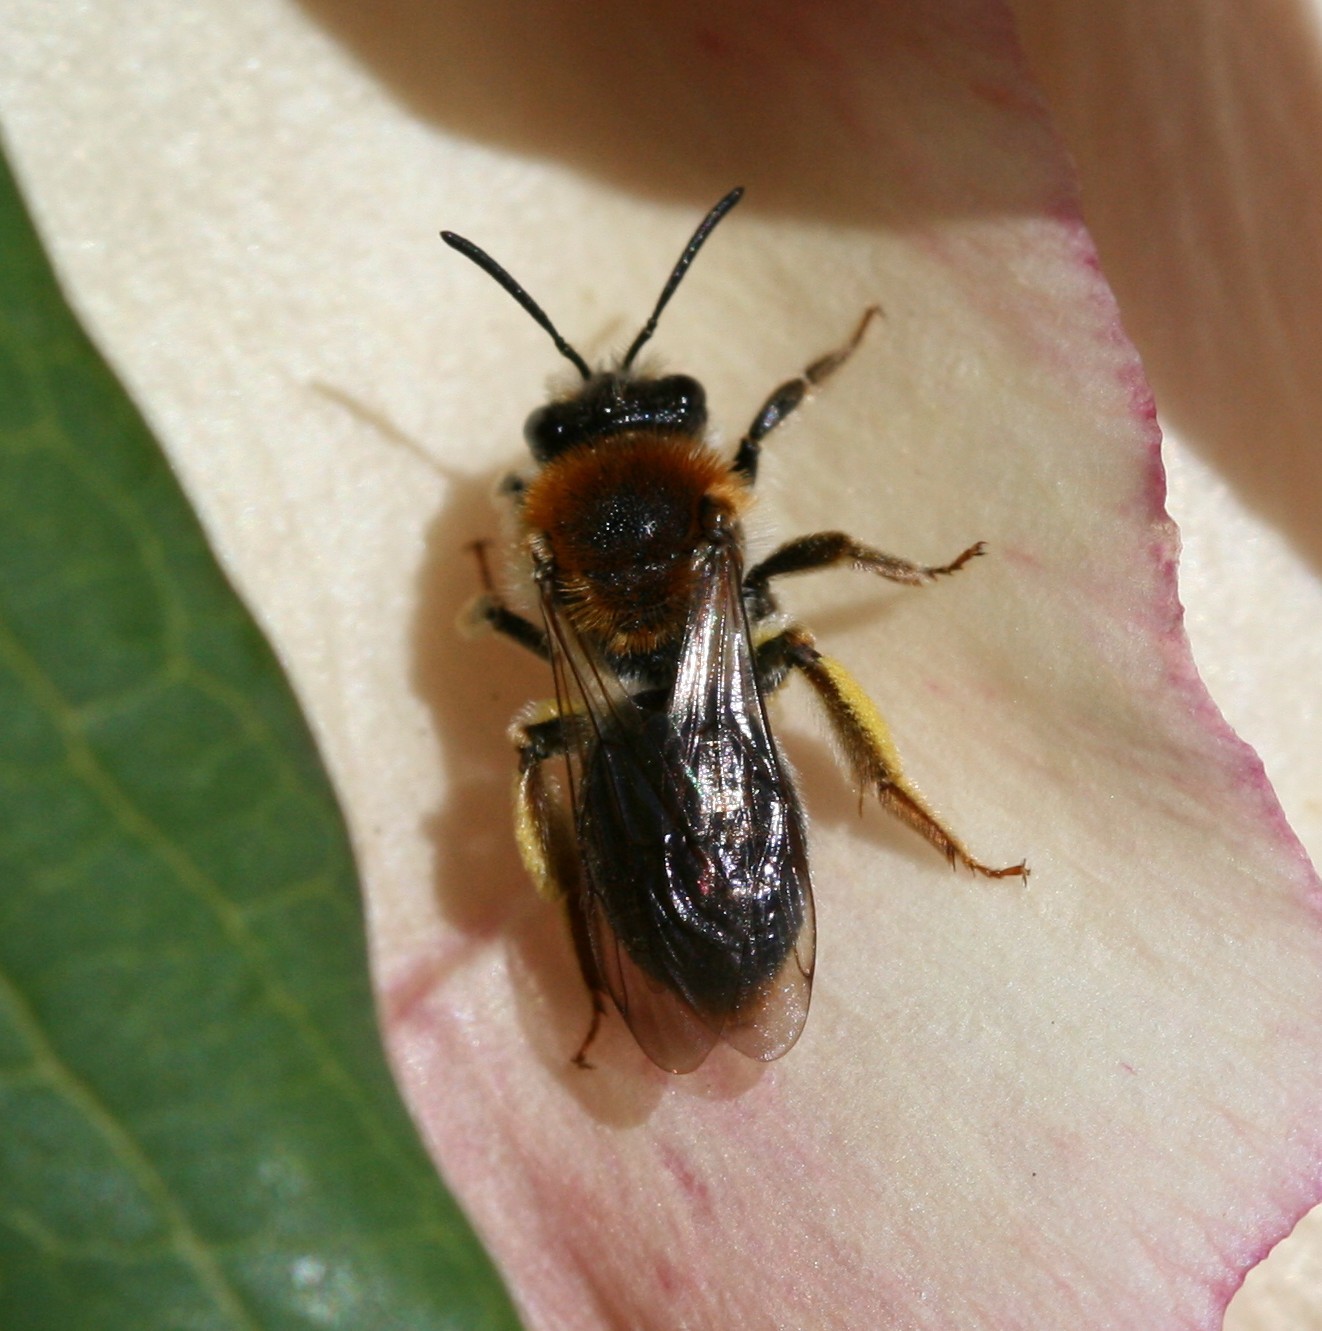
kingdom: Animalia
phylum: Arthropoda
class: Insecta
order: Hymenoptera
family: Andrenidae
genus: Andrena
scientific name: Andrena haemorrhoa
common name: Early mining bee
